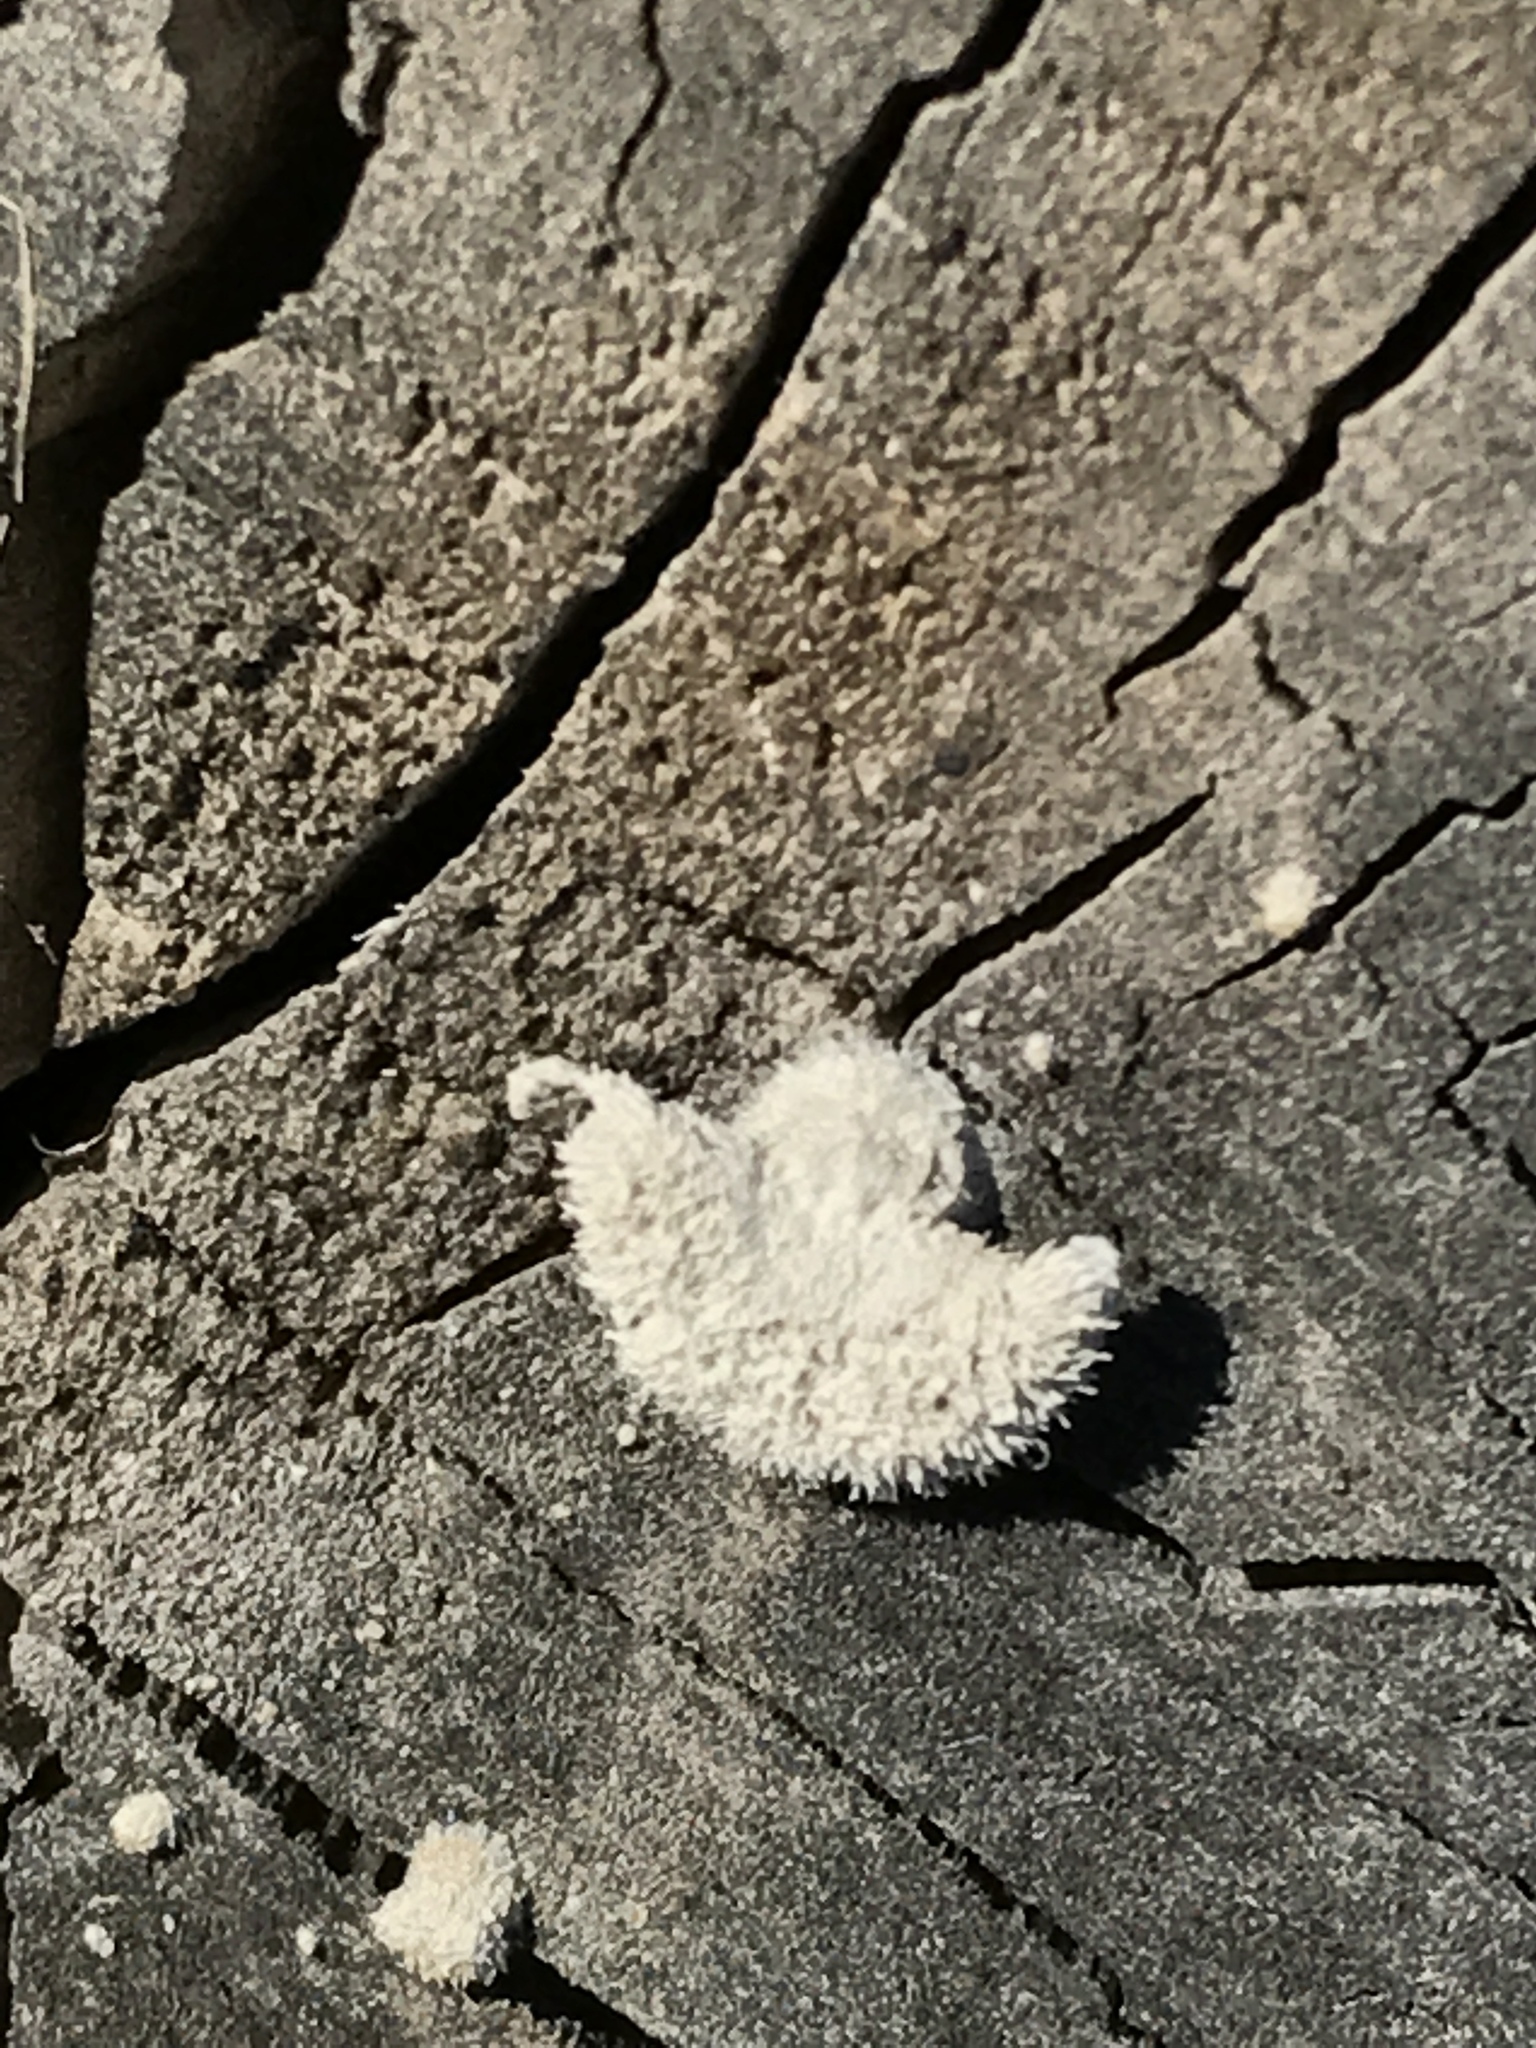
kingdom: Fungi
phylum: Basidiomycota
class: Agaricomycetes
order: Agaricales
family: Schizophyllaceae
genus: Schizophyllum
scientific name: Schizophyllum commune
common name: Common porecrust
